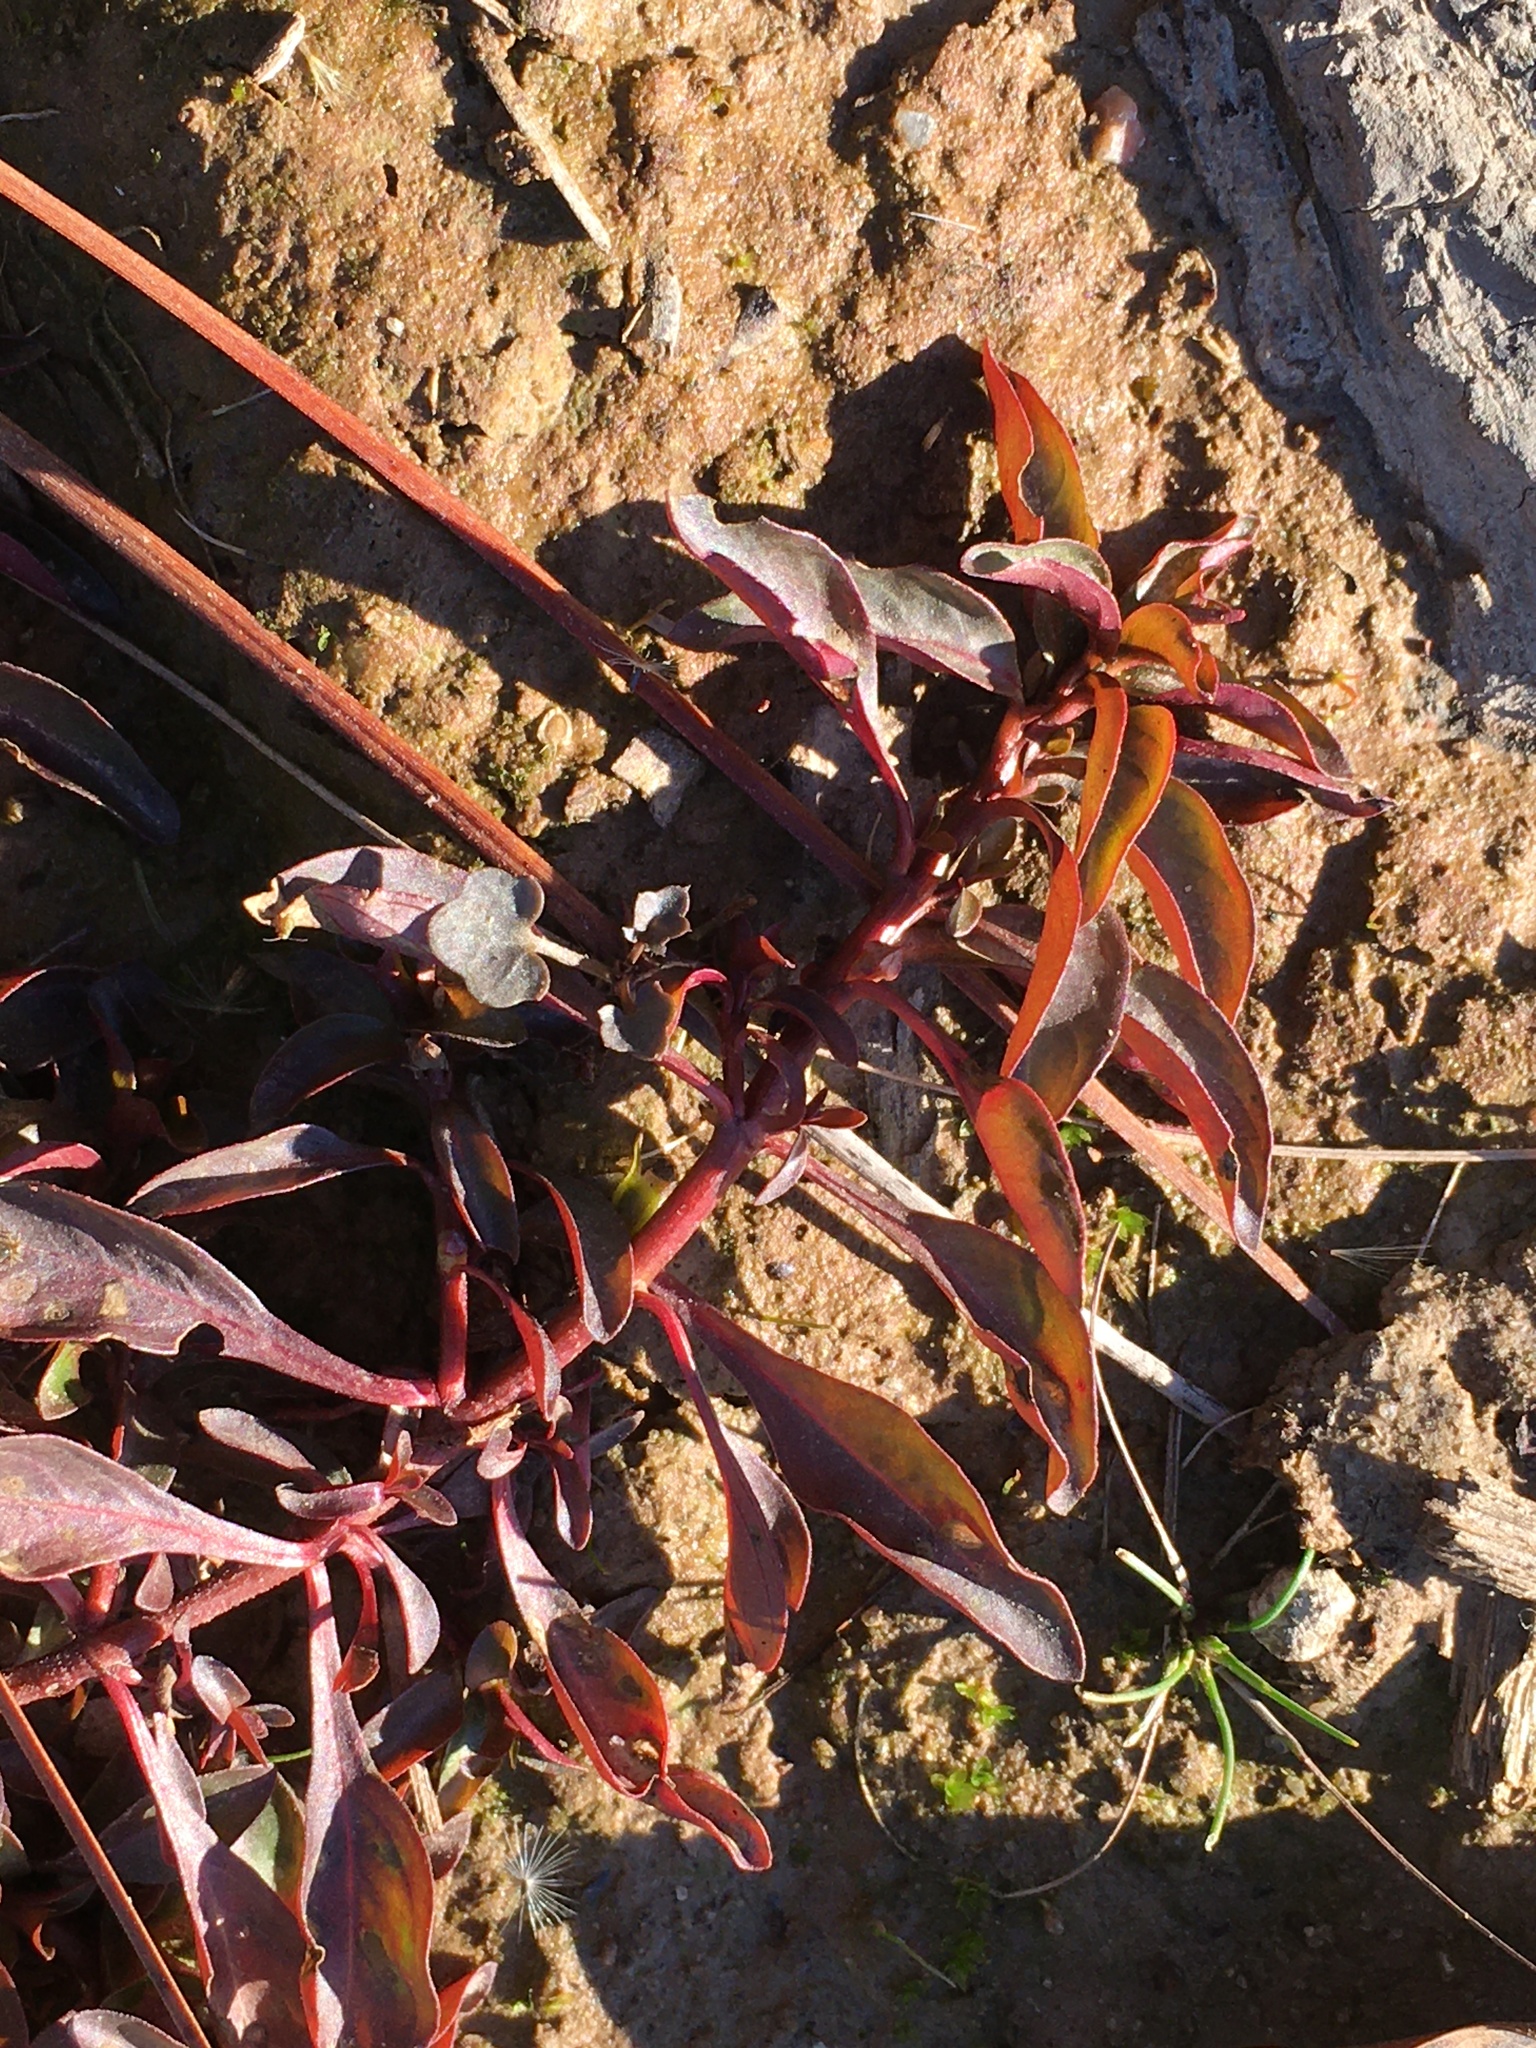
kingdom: Plantae
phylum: Tracheophyta
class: Magnoliopsida
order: Myrtales
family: Onagraceae
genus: Ludwigia
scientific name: Ludwigia palustris
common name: Hampshire-purslane
